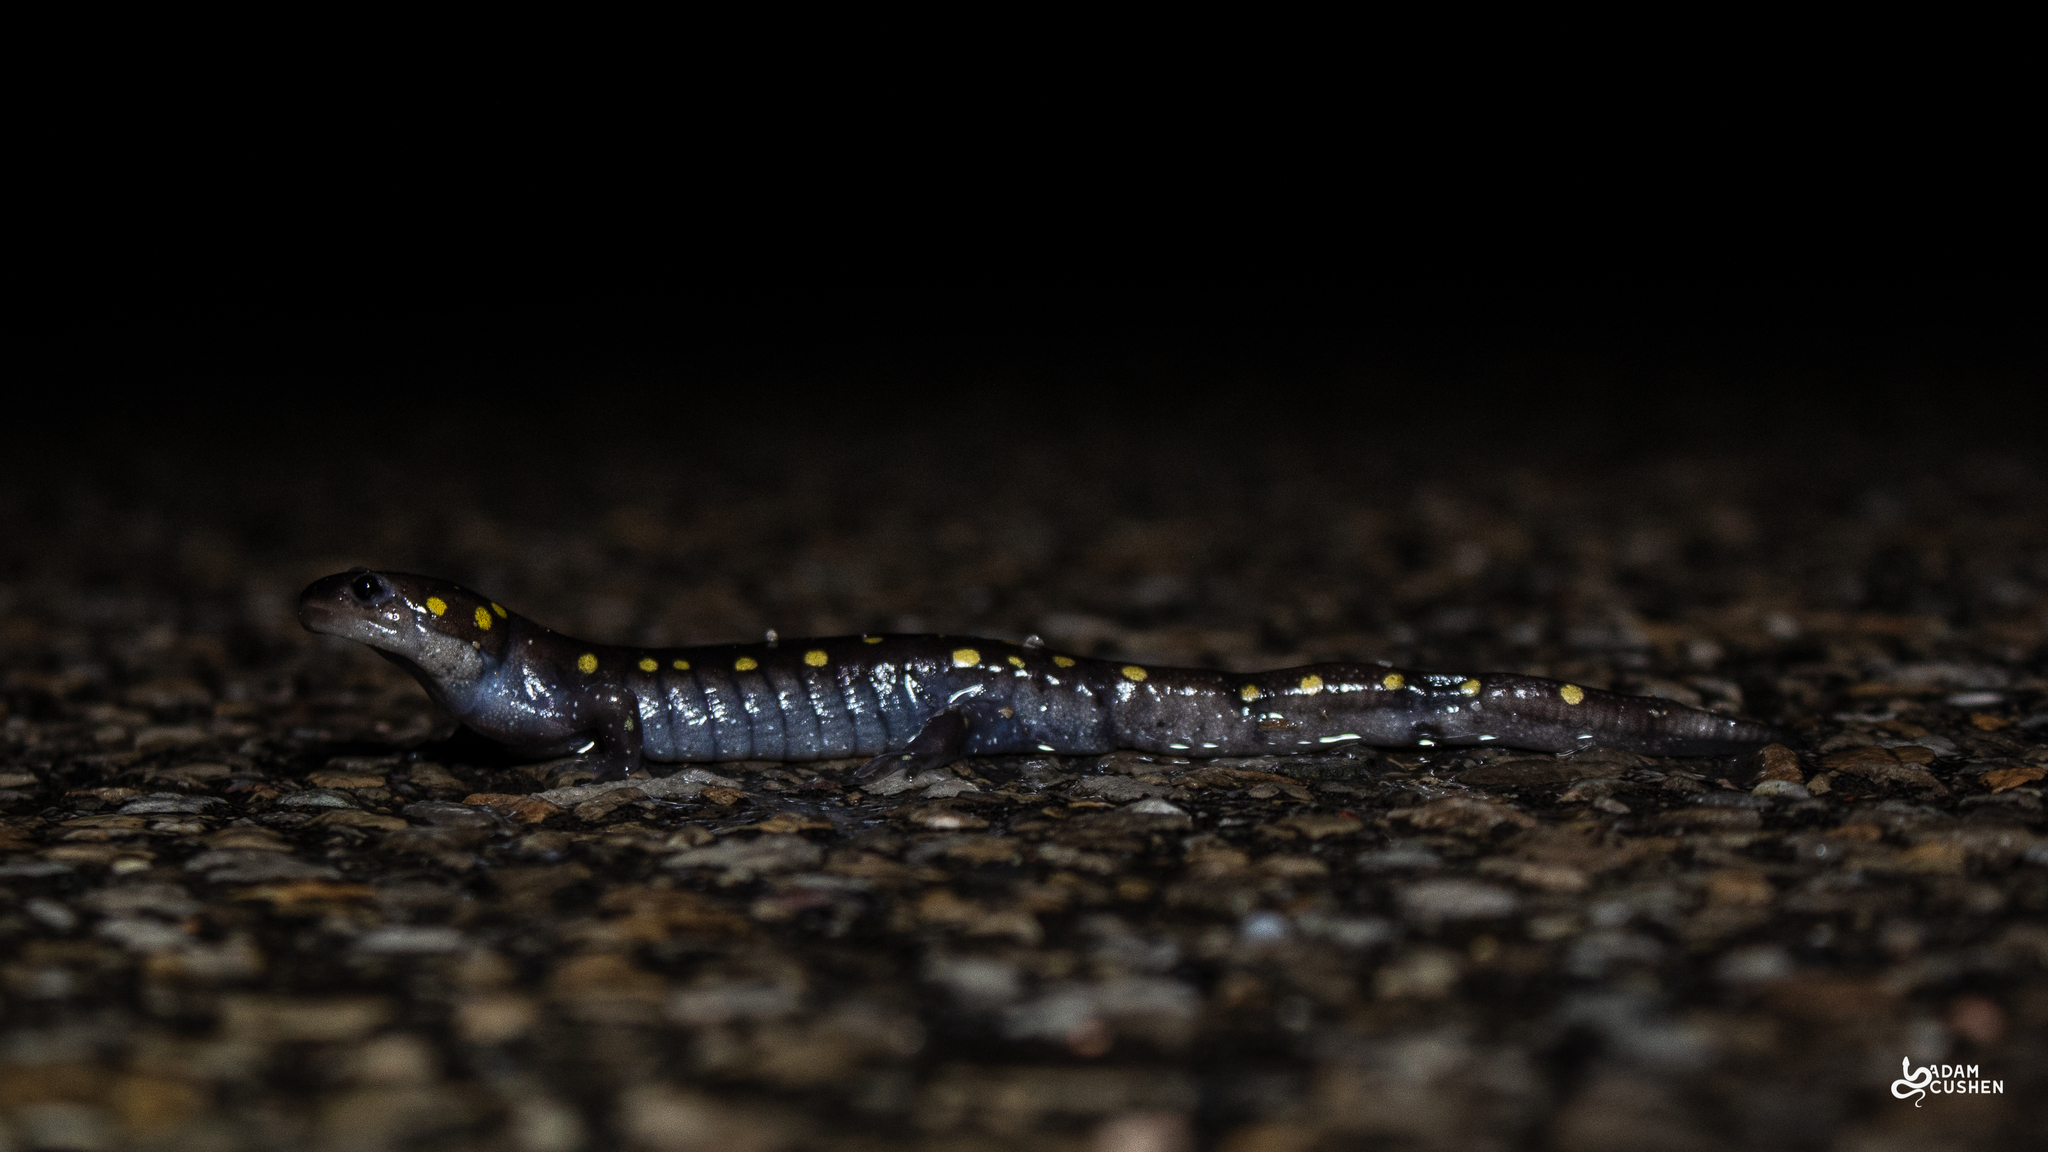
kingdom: Animalia
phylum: Chordata
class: Amphibia
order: Caudata
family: Ambystomatidae
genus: Ambystoma
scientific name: Ambystoma maculatum
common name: Spotted salamander
